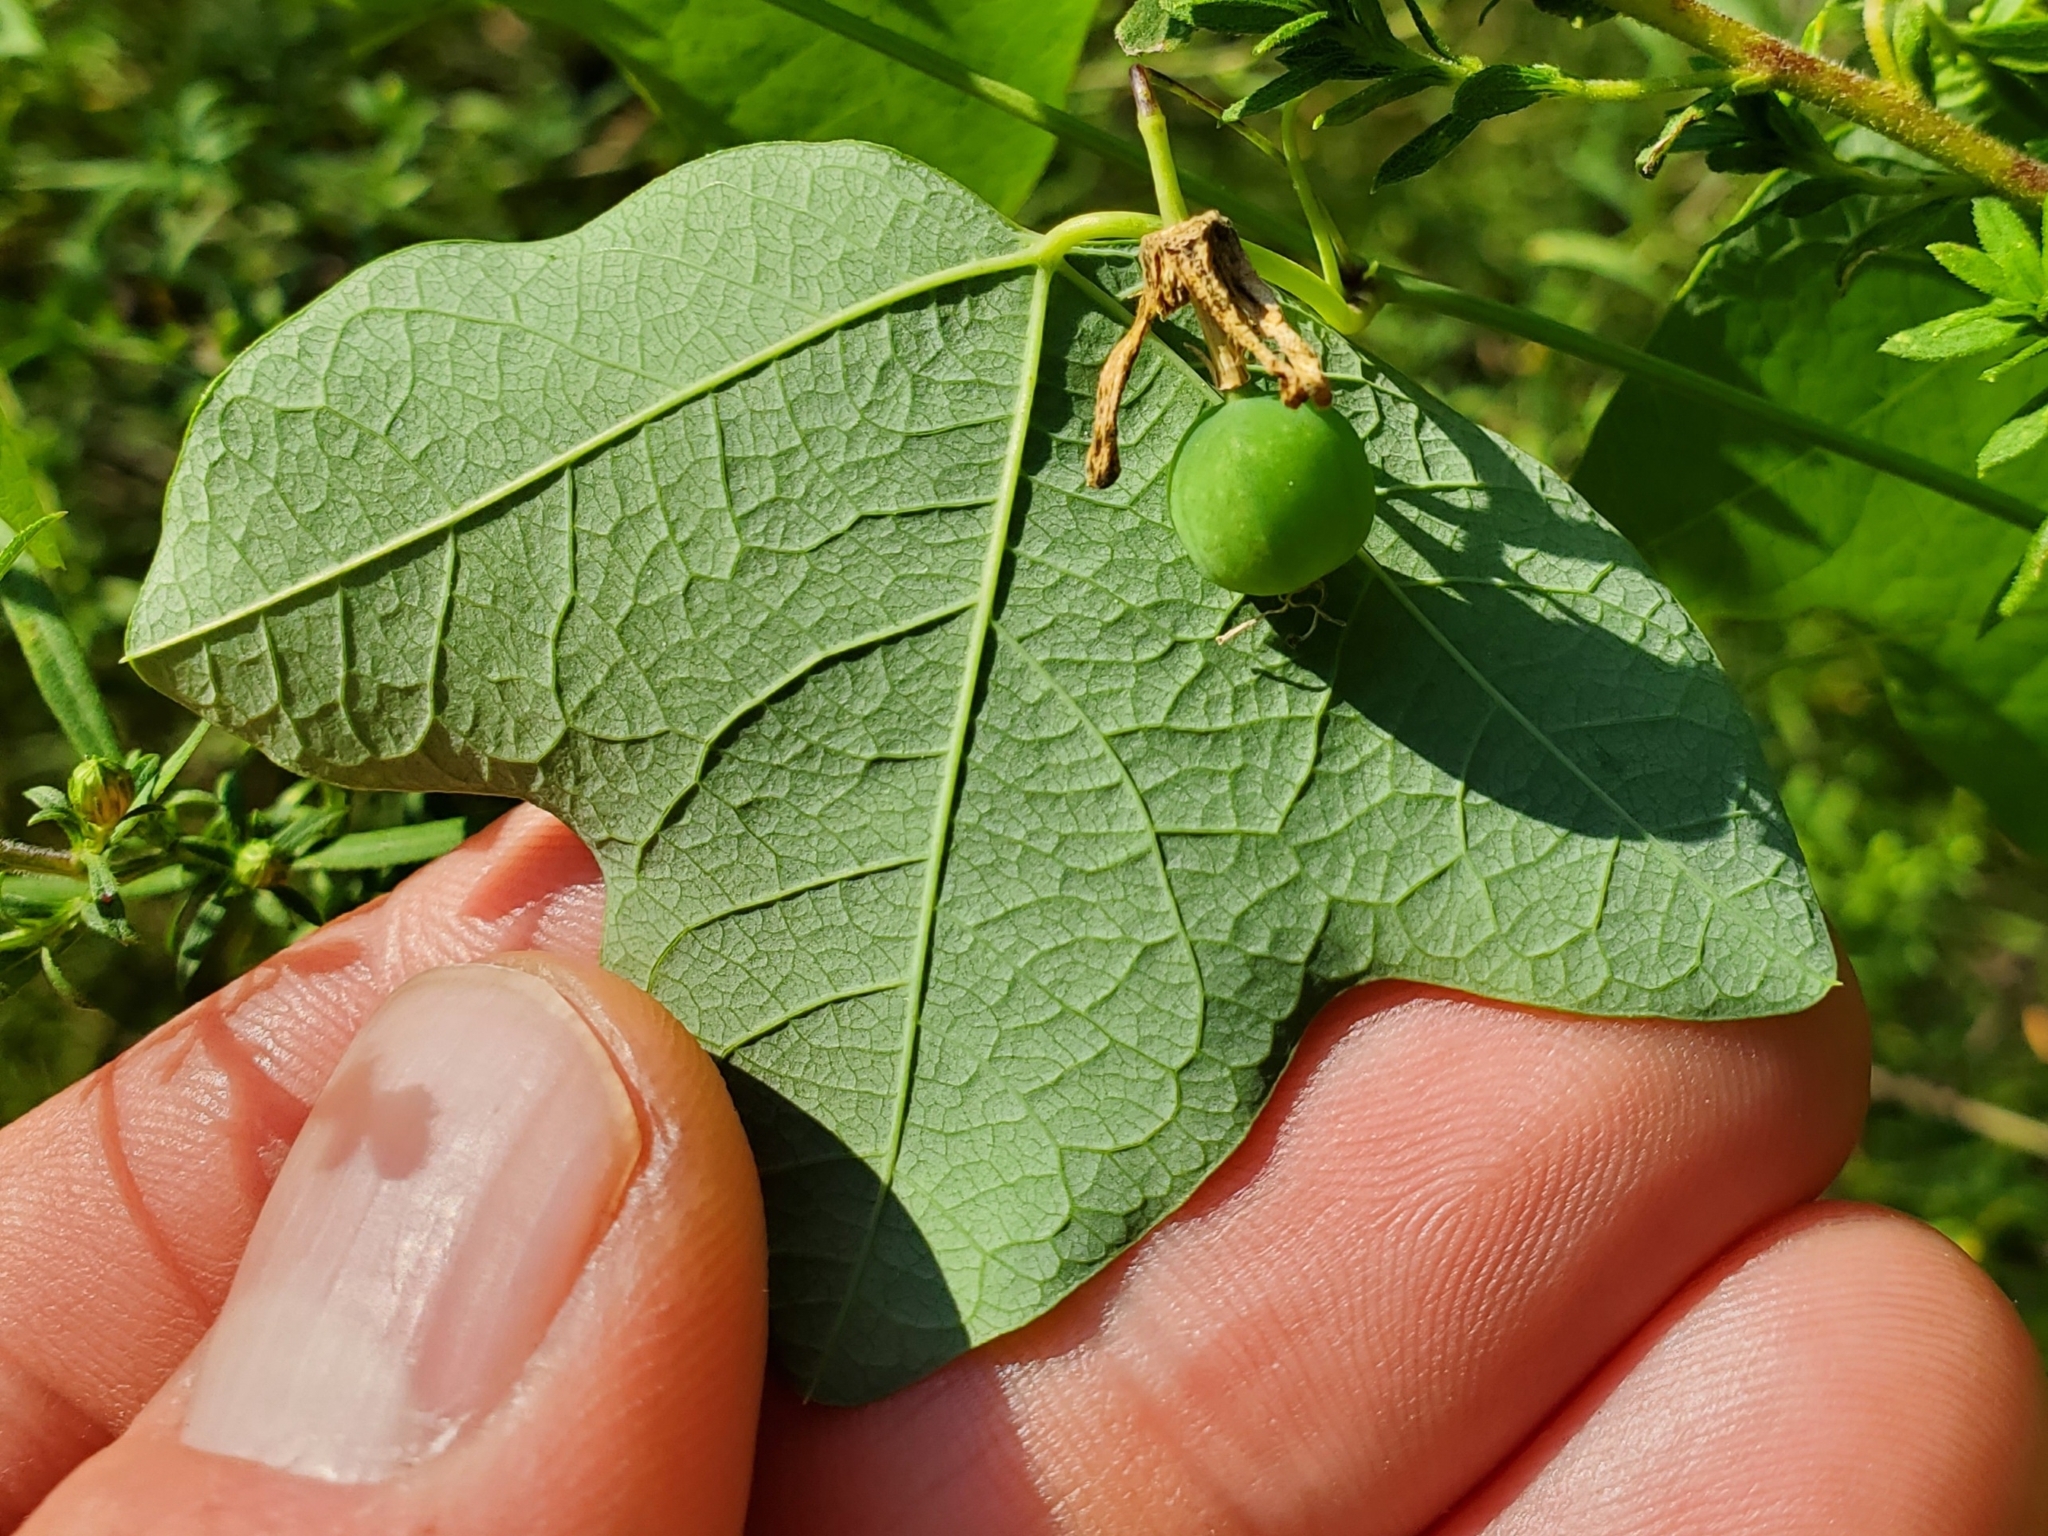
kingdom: Plantae
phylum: Tracheophyta
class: Magnoliopsida
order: Malpighiales
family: Passifloraceae
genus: Passiflora
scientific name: Passiflora lutea
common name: Yellow passionflower
